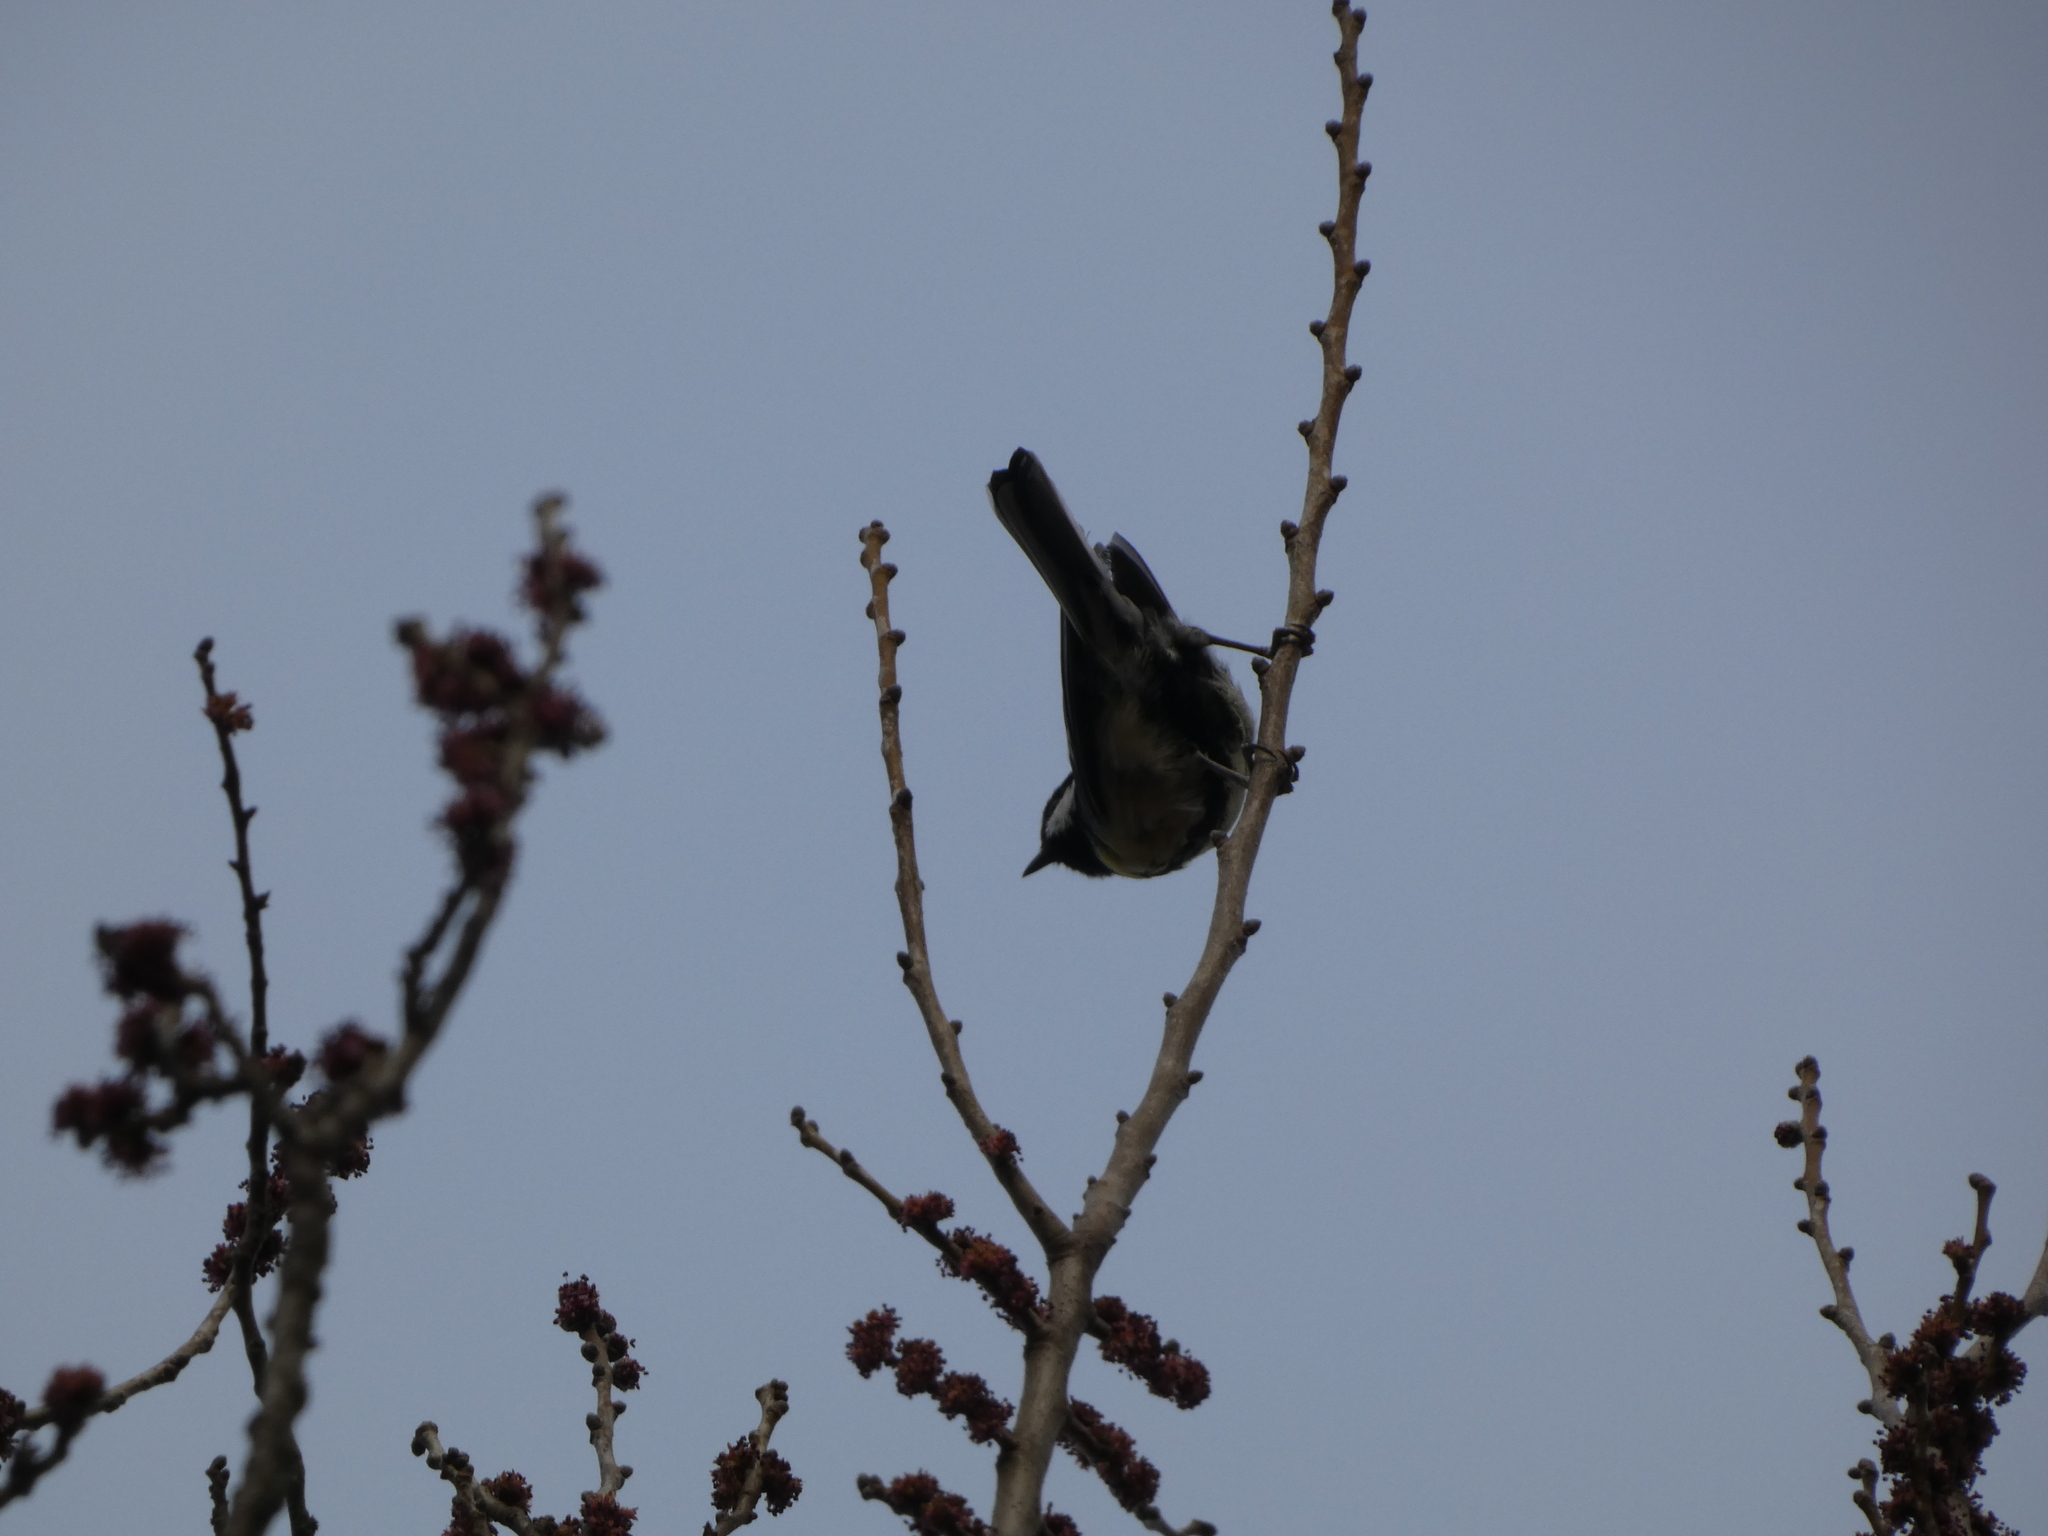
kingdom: Animalia
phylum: Chordata
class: Aves
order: Passeriformes
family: Paridae
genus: Parus
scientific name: Parus major
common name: Great tit
